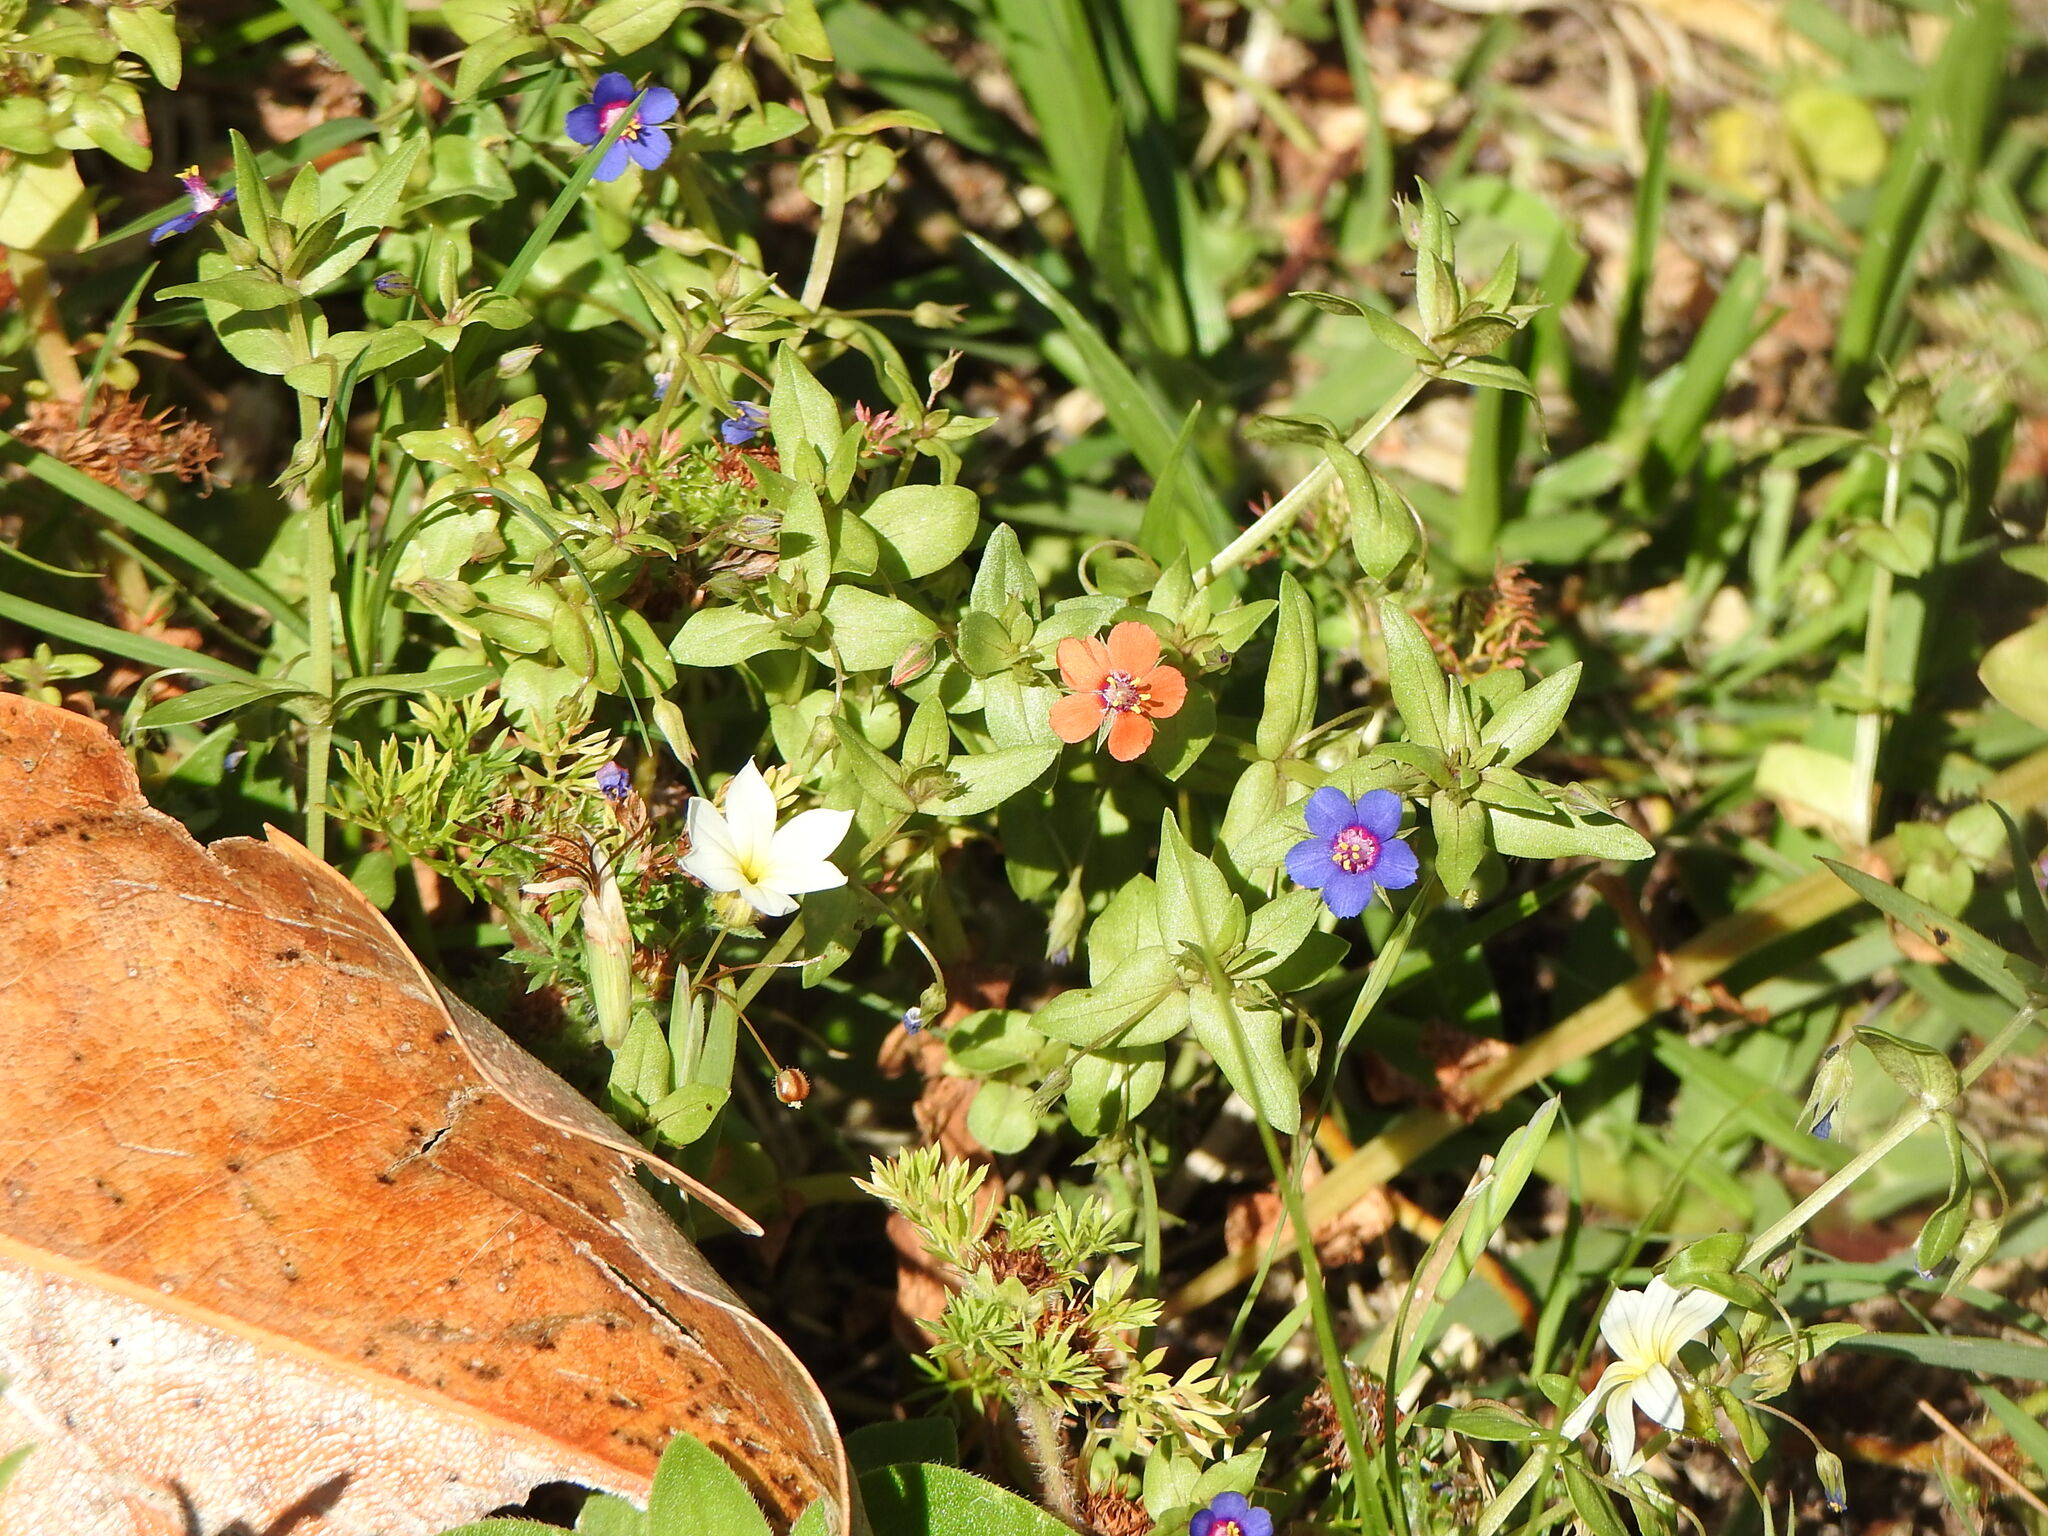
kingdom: Plantae
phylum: Tracheophyta
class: Magnoliopsida
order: Ericales
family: Primulaceae
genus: Lysimachia
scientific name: Lysimachia arvensis
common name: Scarlet pimpernel
